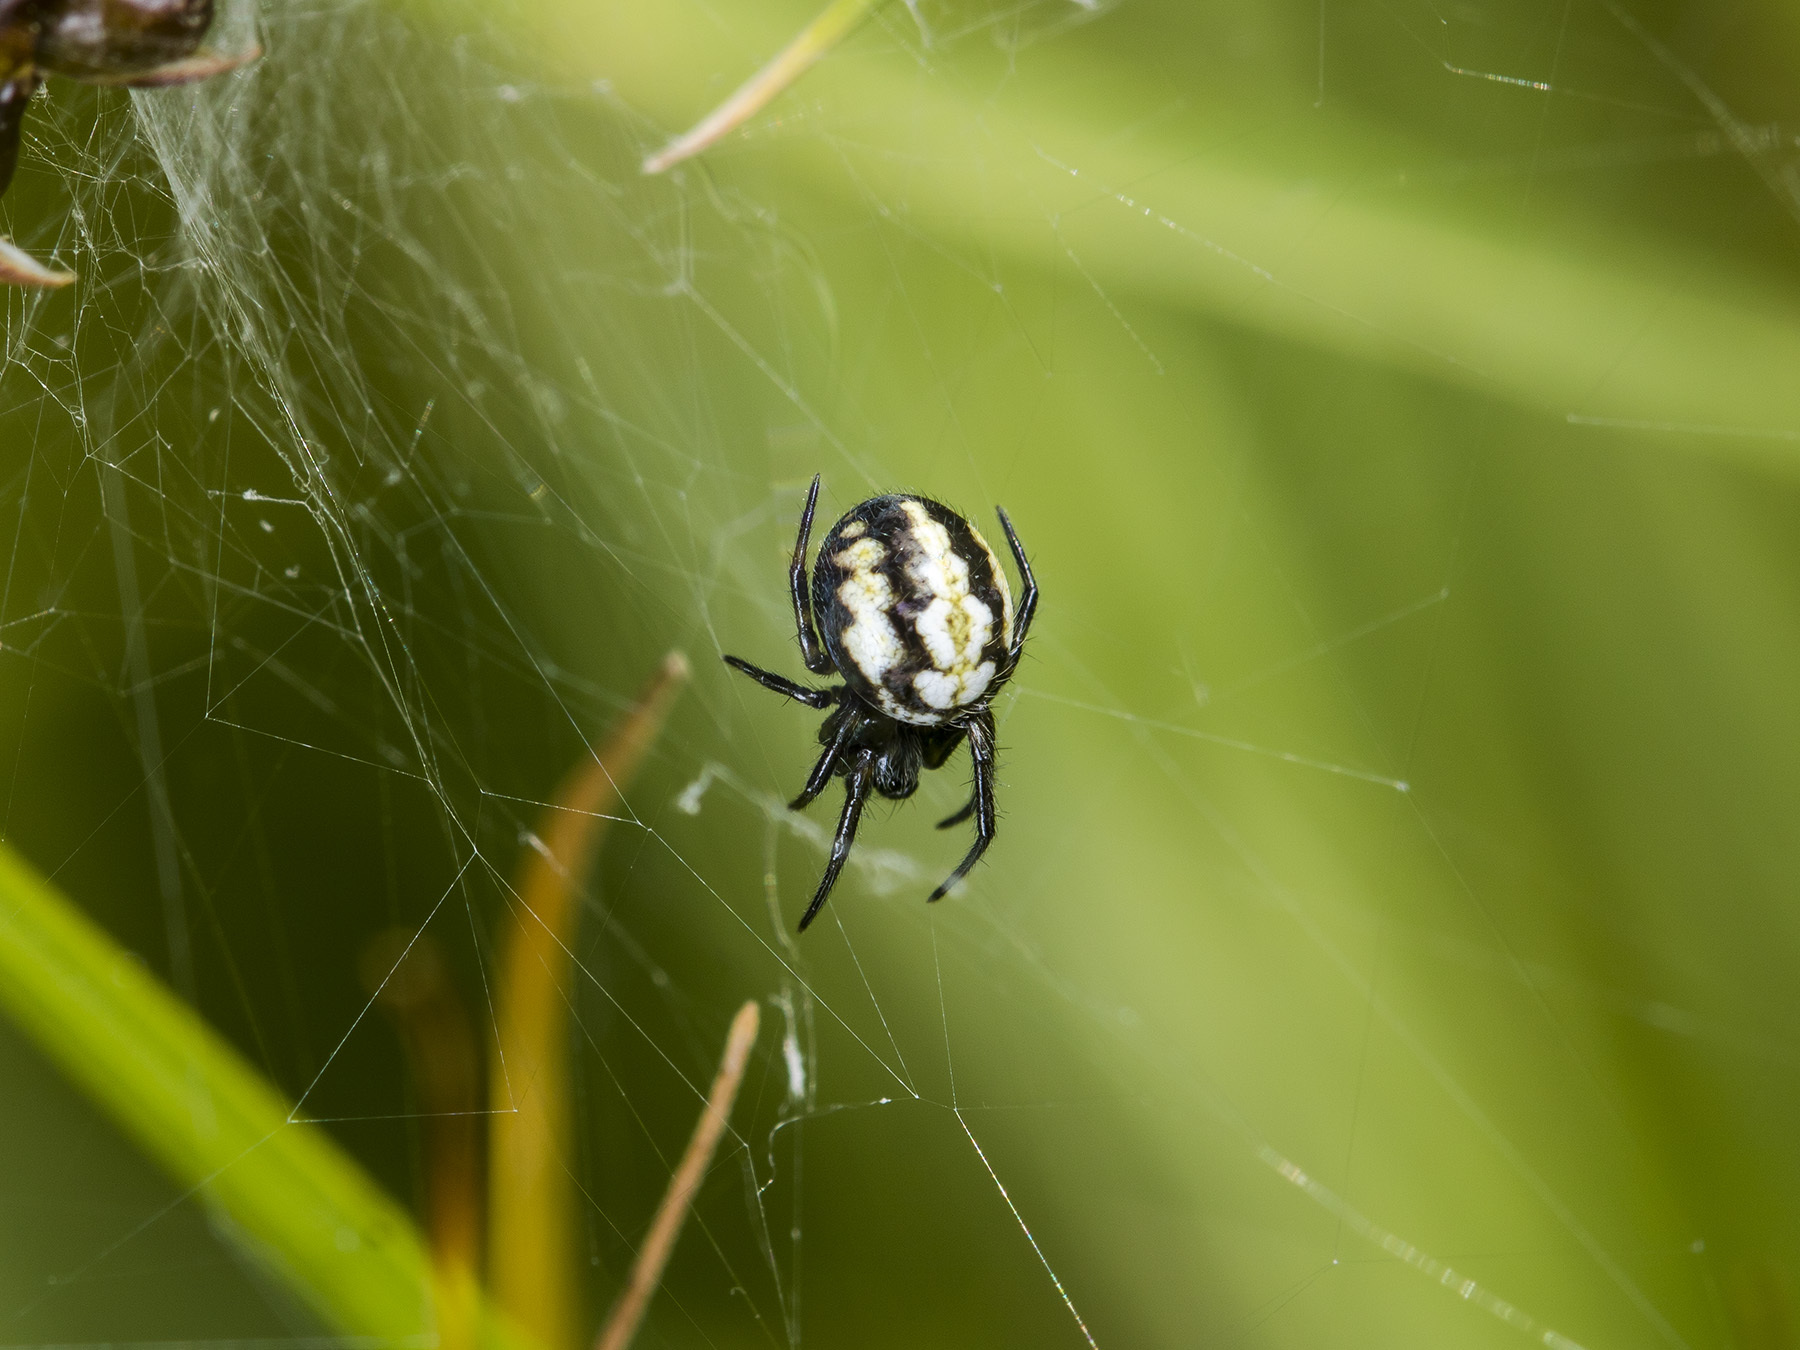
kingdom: Animalia
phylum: Arthropoda
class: Arachnida
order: Araneae
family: Araneidae
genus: Neoscona
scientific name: Neoscona adianta
